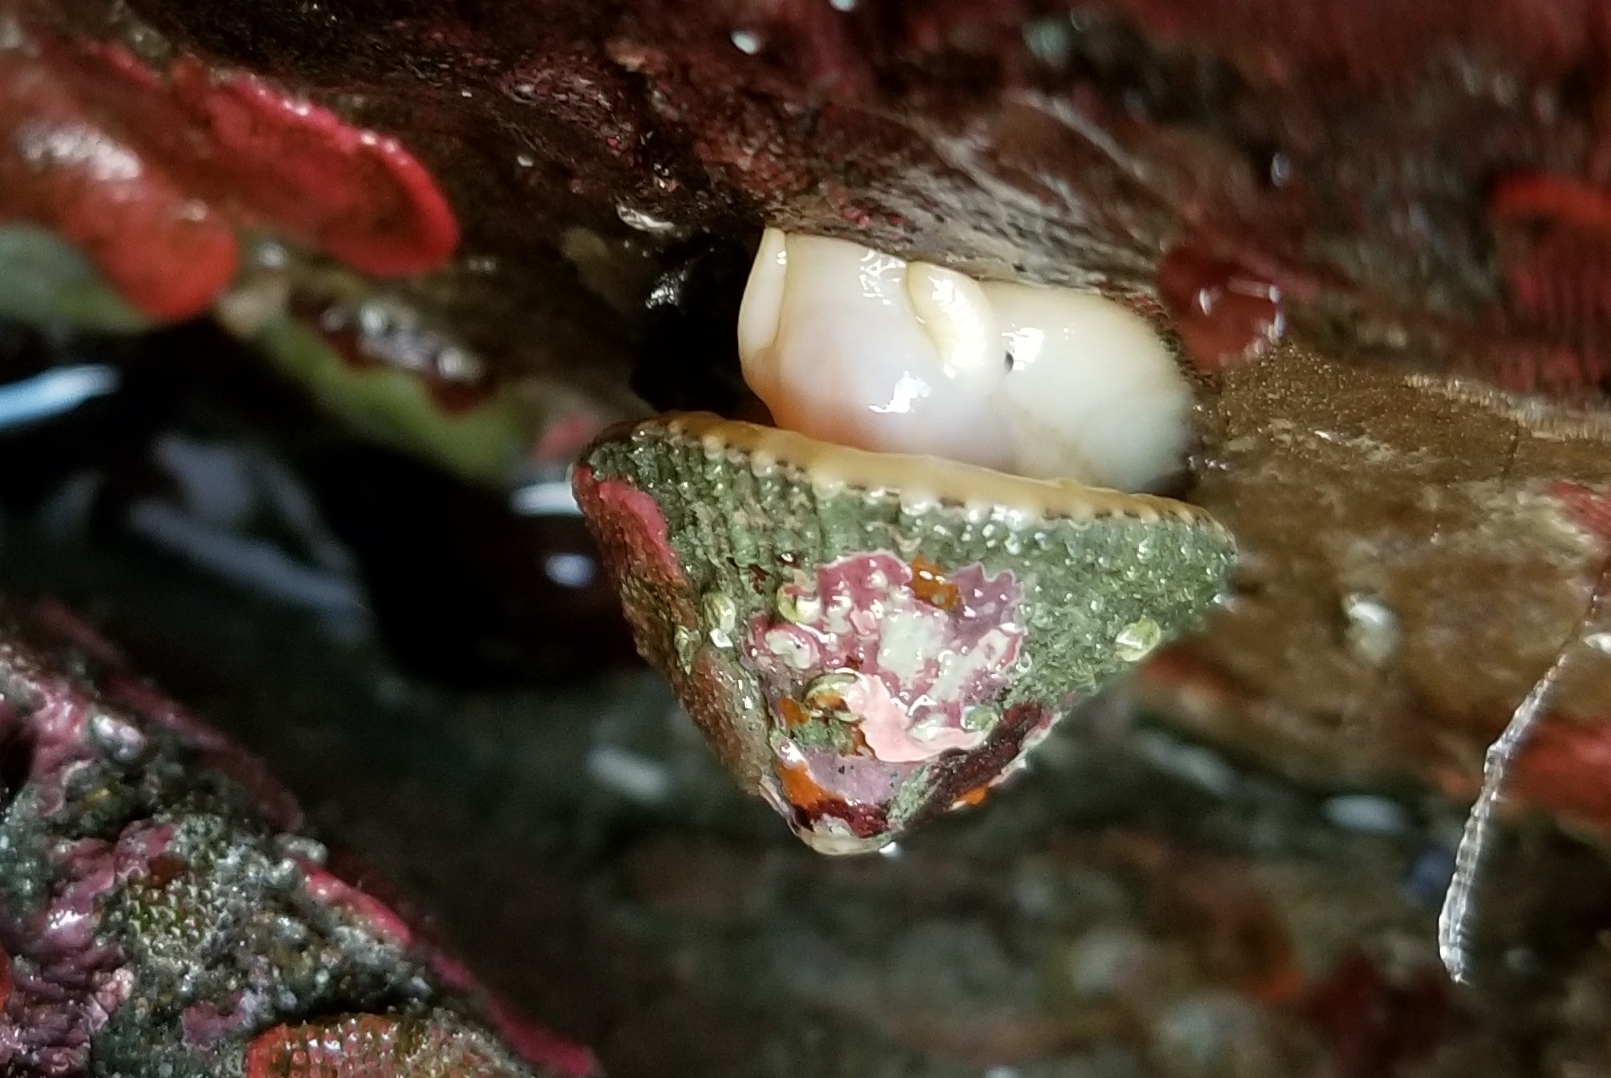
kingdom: Animalia
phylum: Mollusca
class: Gastropoda
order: Lepetellida
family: Fissurellidae
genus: Diodora
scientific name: Diodora aspera
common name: Rough keyhole limpet
